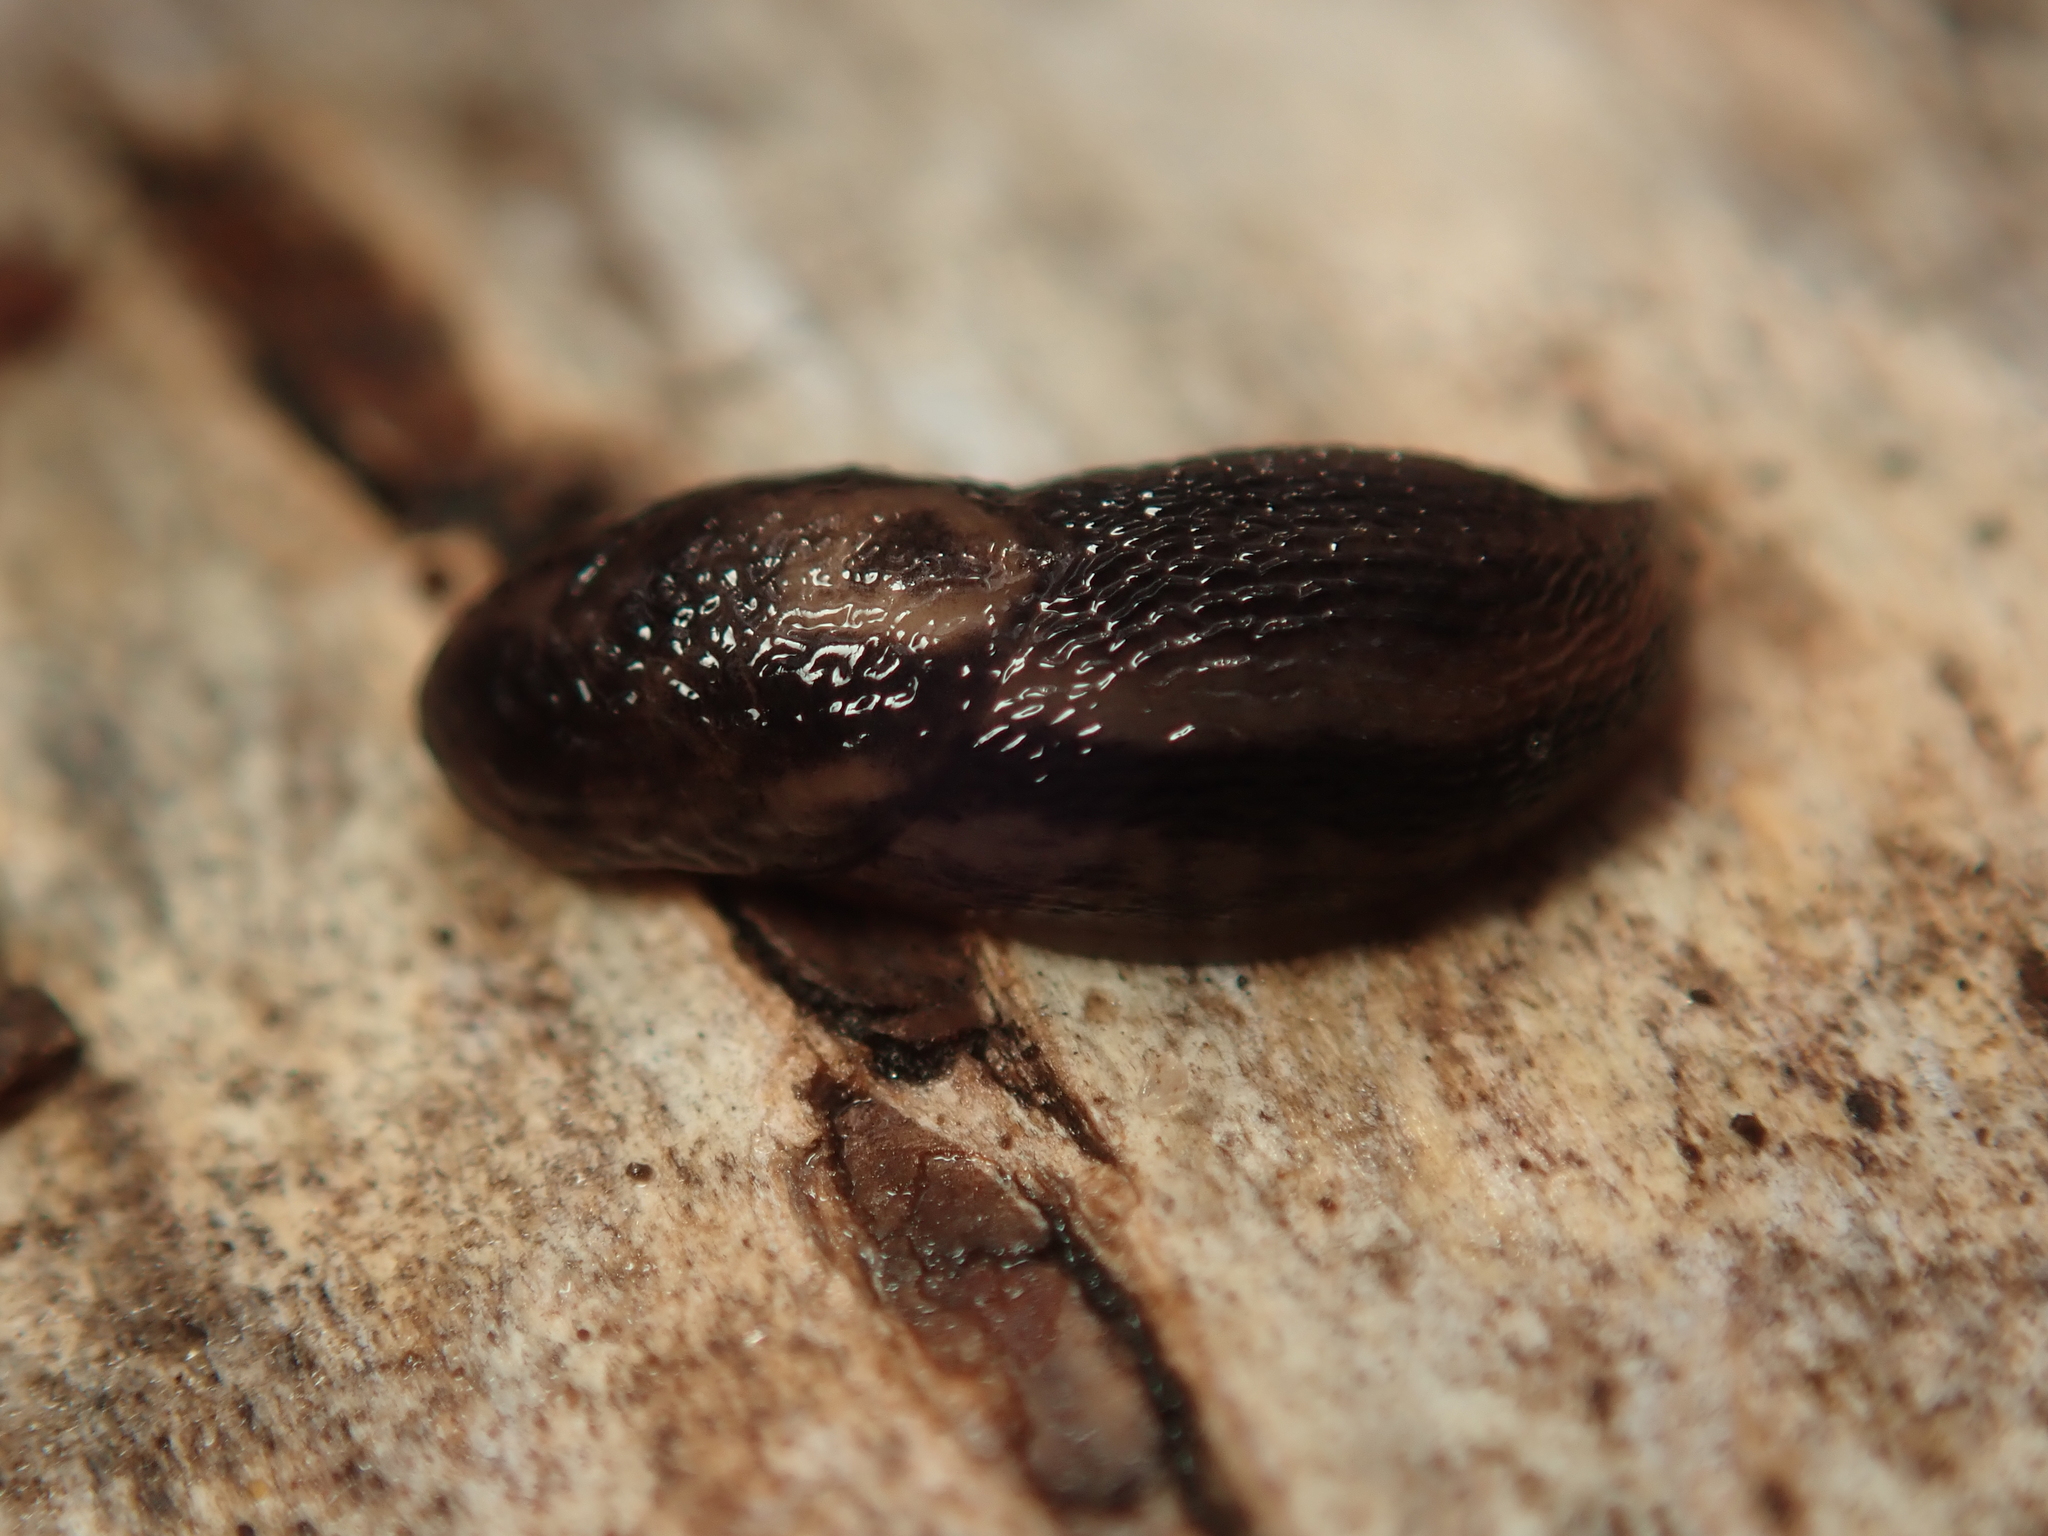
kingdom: Animalia
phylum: Mollusca
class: Gastropoda
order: Stylommatophora
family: Limacidae
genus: Limax
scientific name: Limax maximus
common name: Great grey slug
